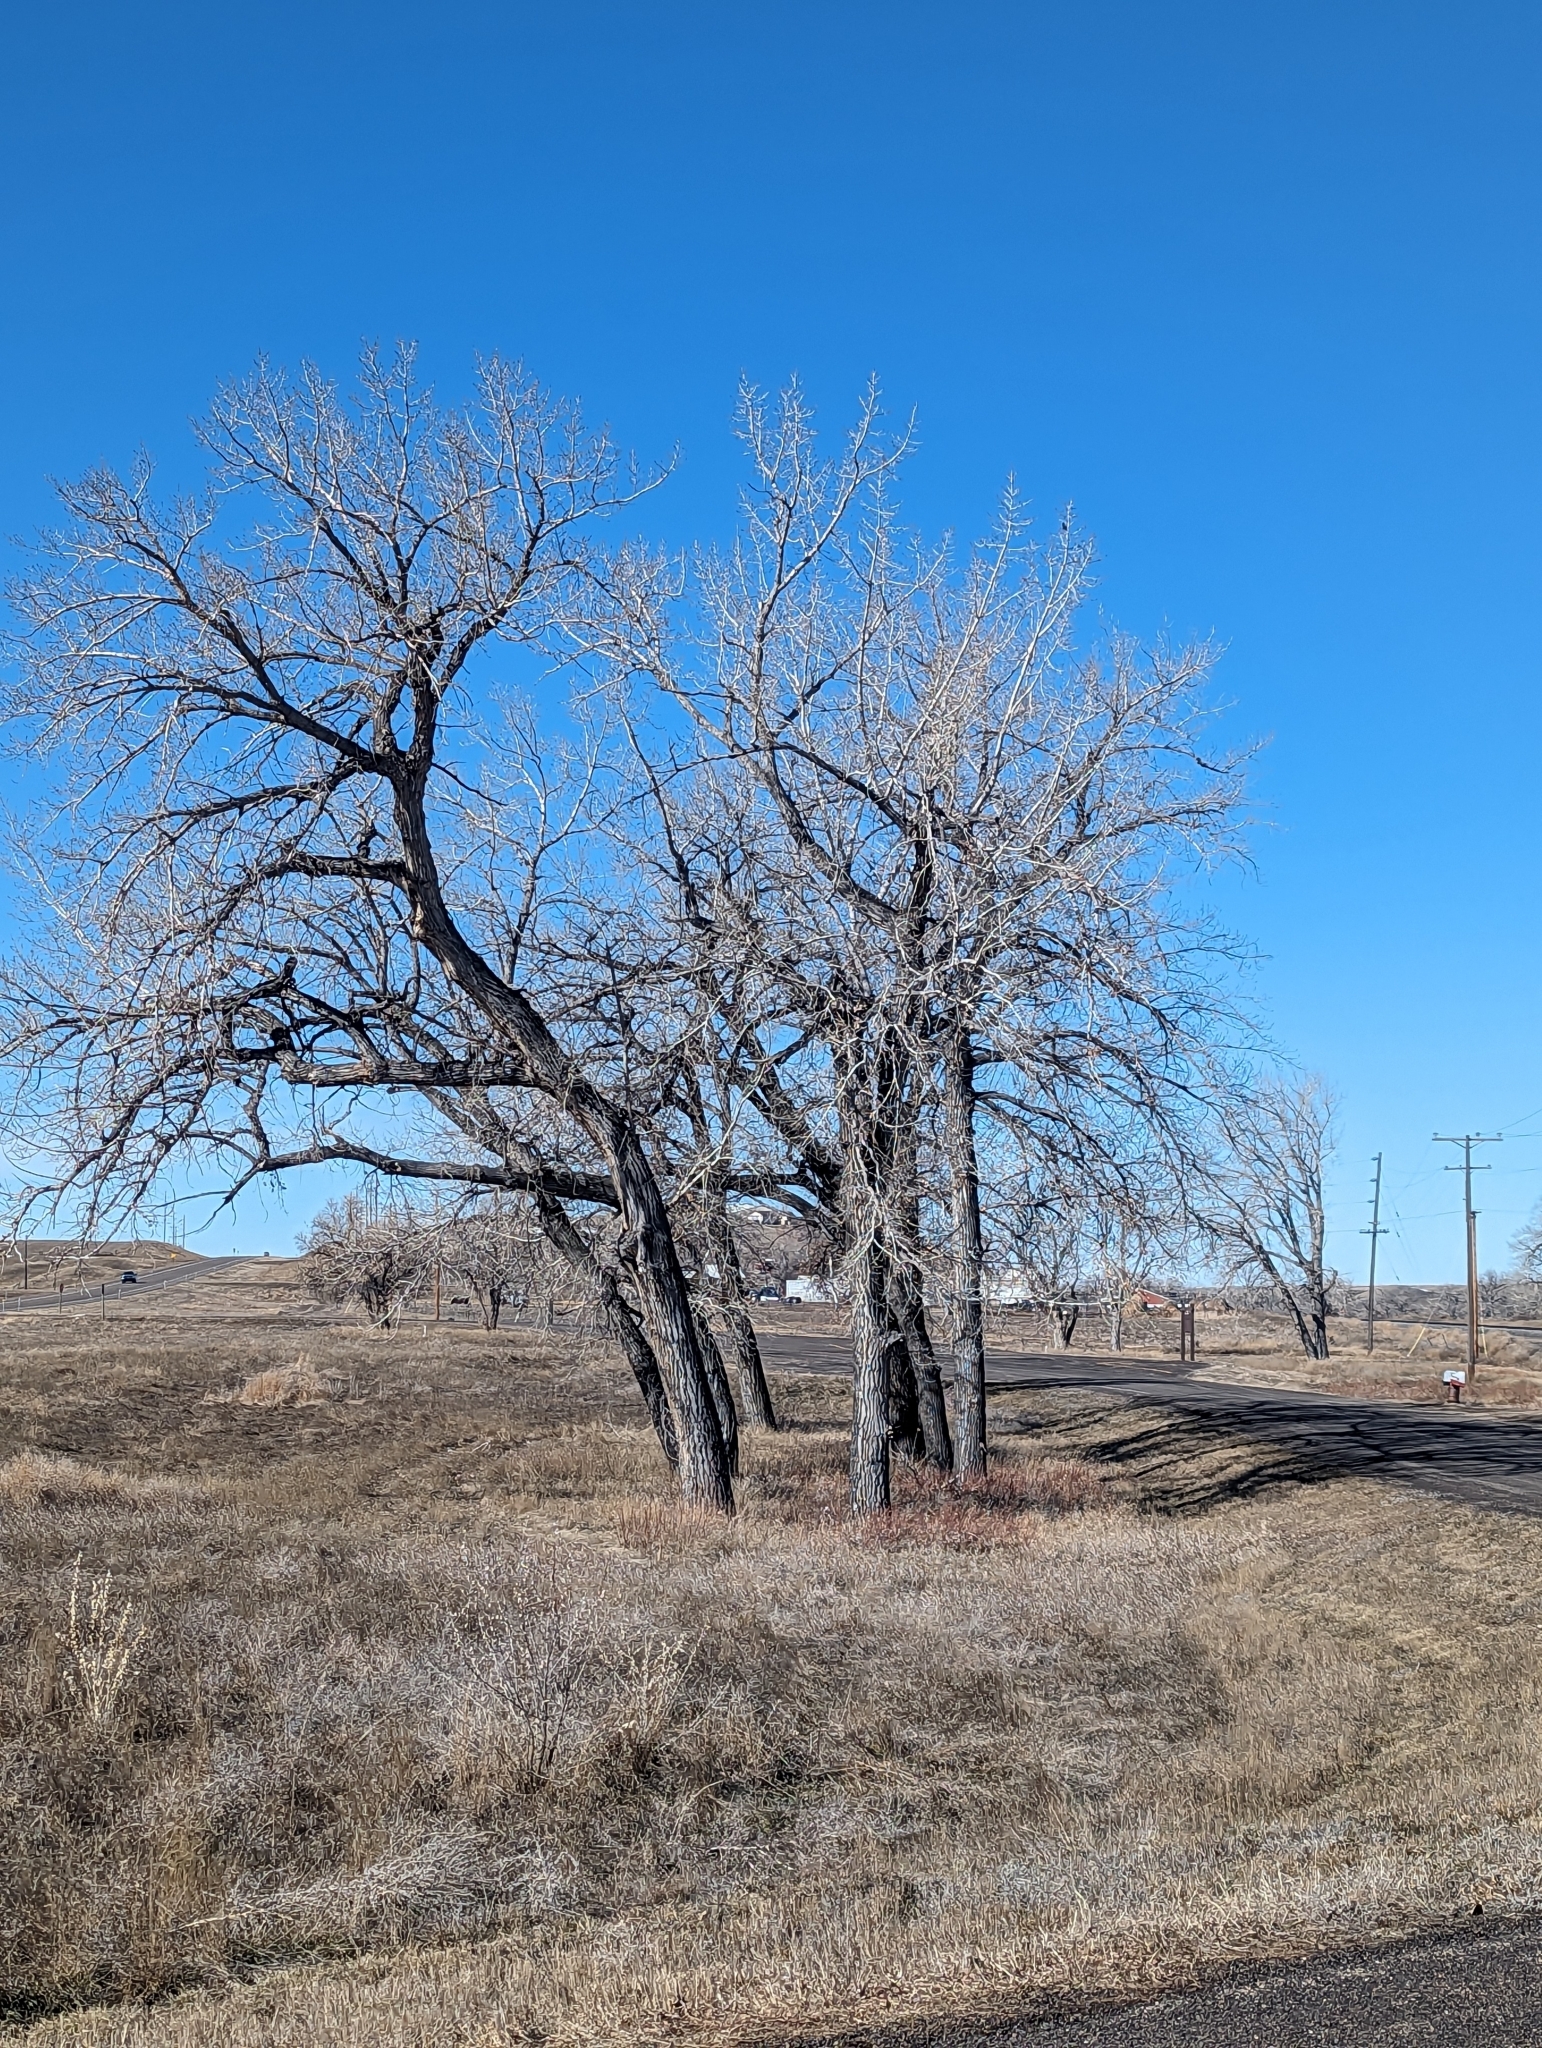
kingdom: Plantae
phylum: Tracheophyta
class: Magnoliopsida
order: Malpighiales
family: Salicaceae
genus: Populus
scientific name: Populus deltoides
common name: Eastern cottonwood
